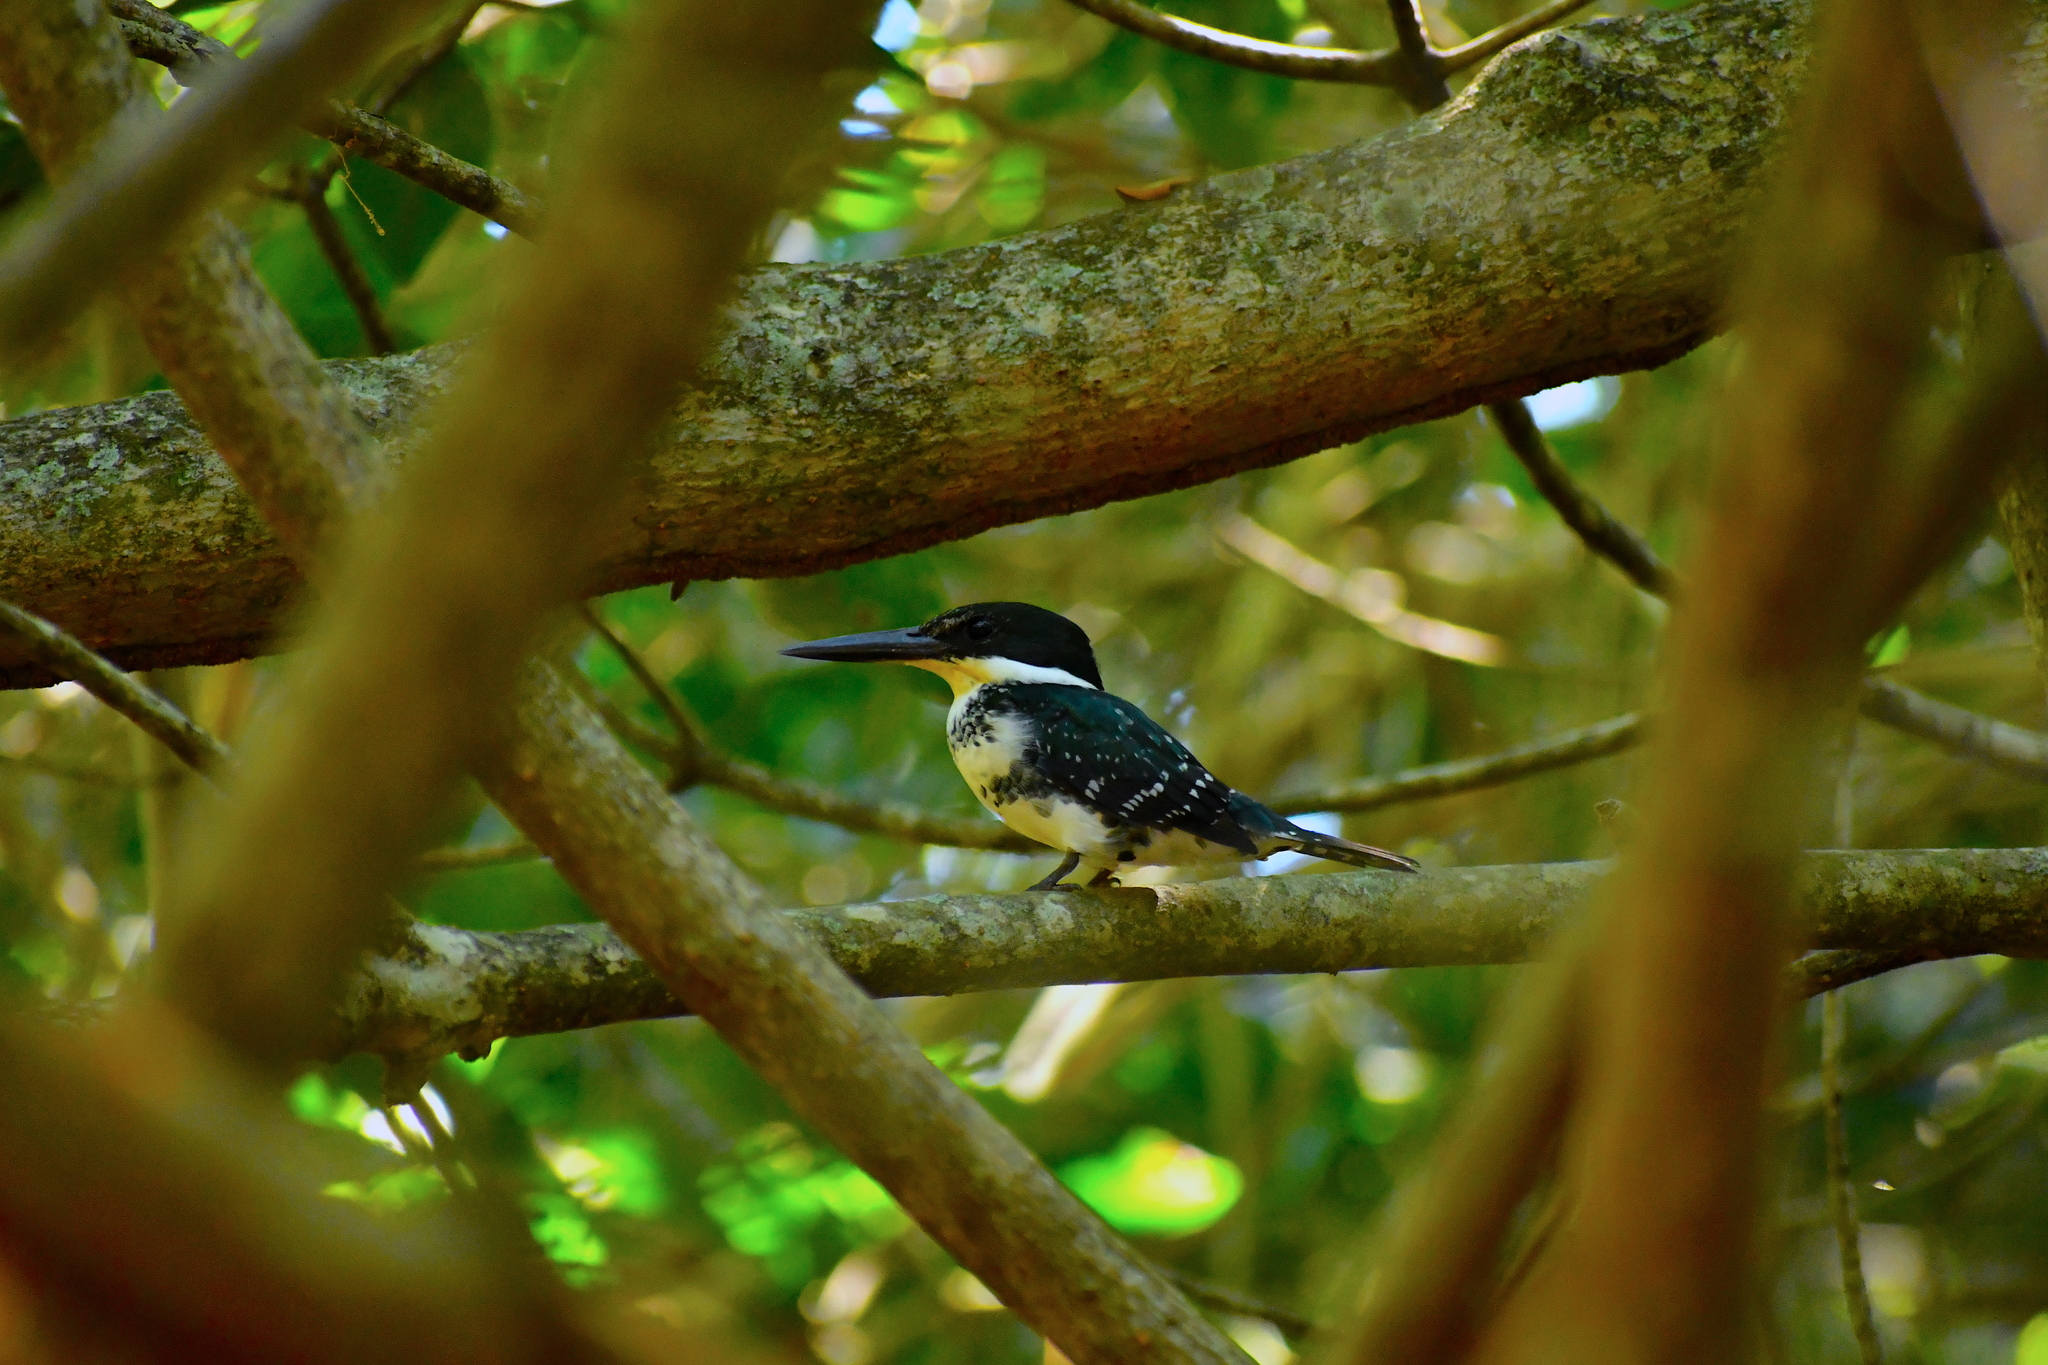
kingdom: Animalia
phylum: Chordata
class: Aves
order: Coraciiformes
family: Alcedinidae
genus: Chloroceryle
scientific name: Chloroceryle americana
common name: Green kingfisher
